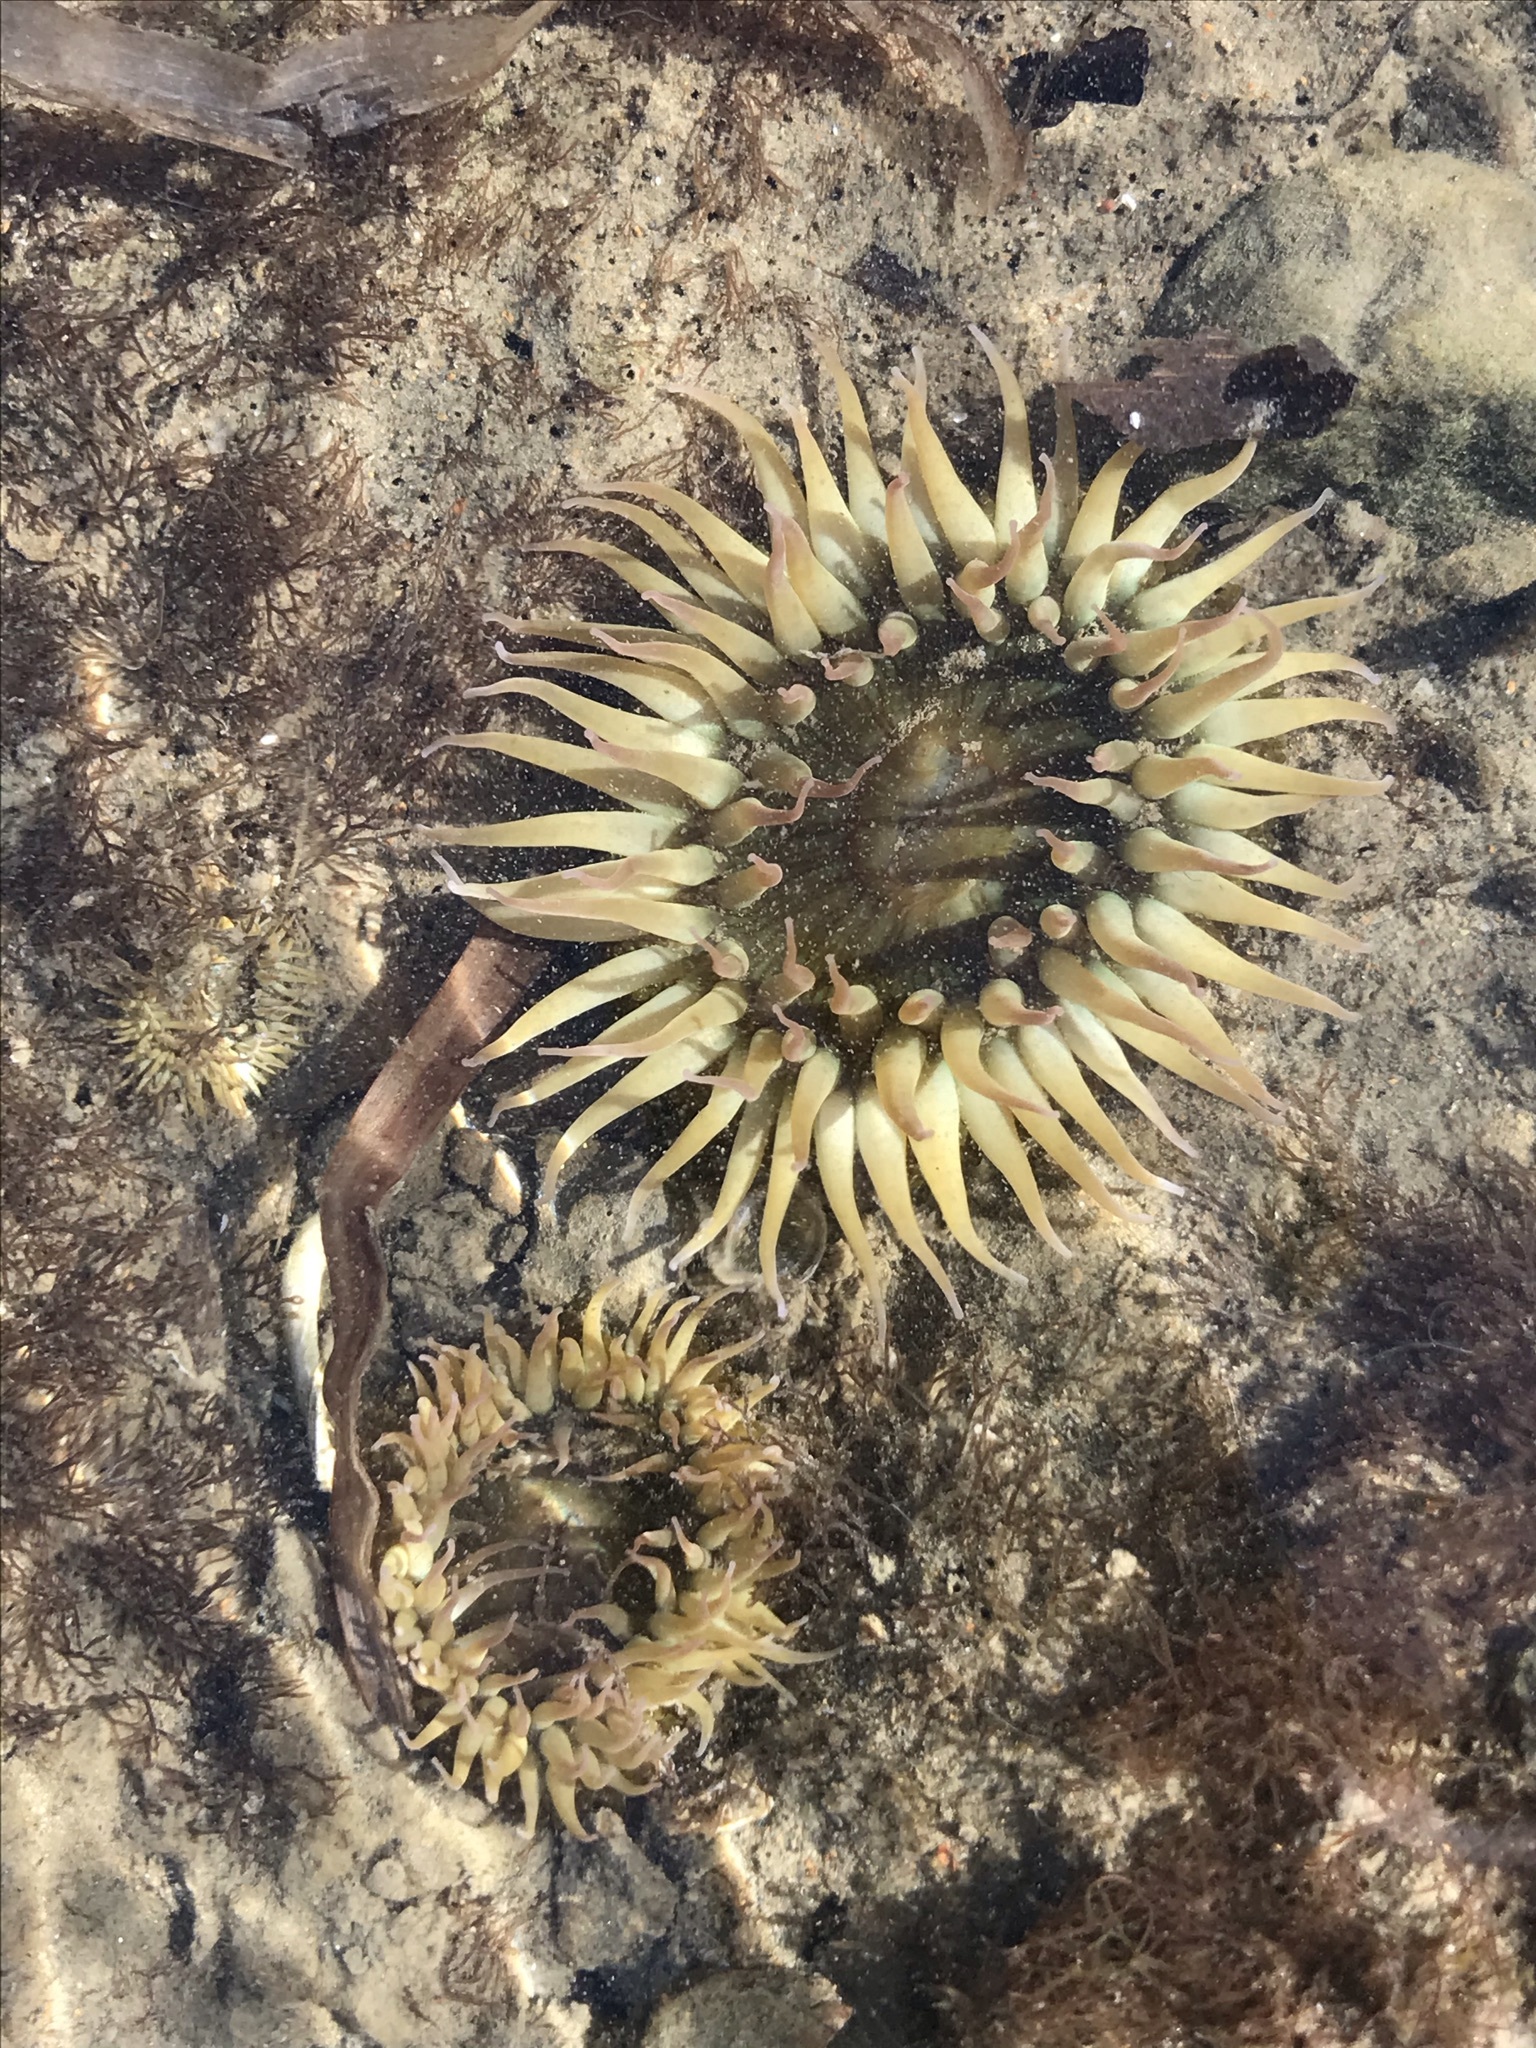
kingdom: Animalia
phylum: Cnidaria
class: Anthozoa
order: Actiniaria
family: Actiniidae
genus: Anthopleura
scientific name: Anthopleura elegantissima
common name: Clonal anemone
